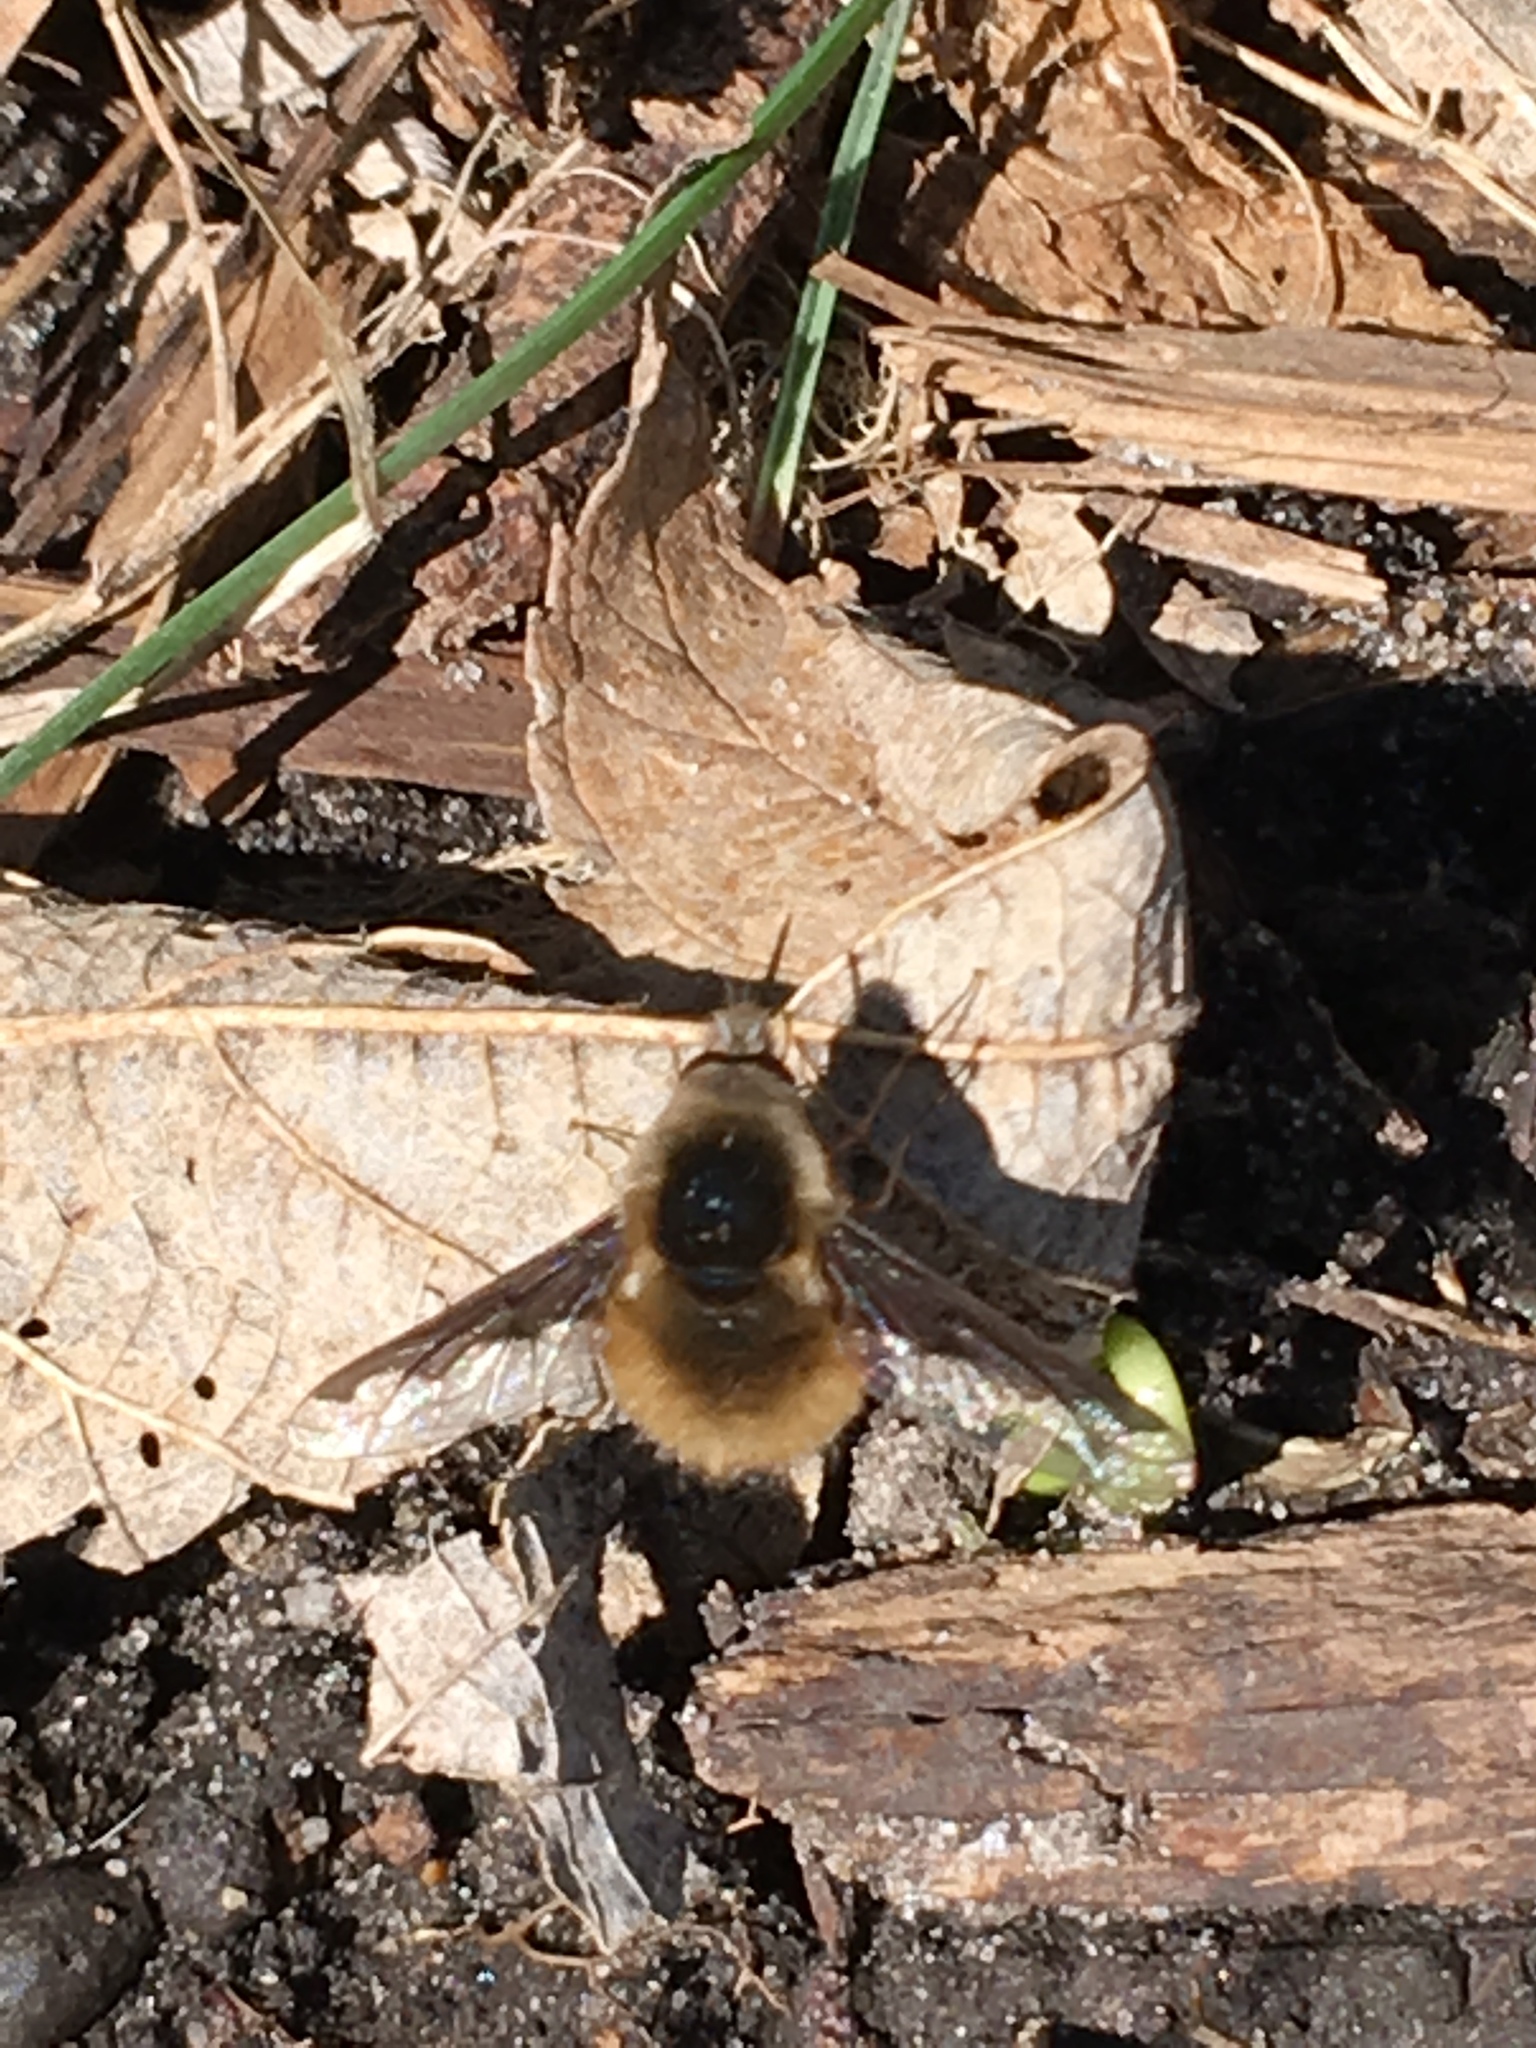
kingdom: Animalia
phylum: Arthropoda
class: Insecta
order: Diptera
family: Bombyliidae
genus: Bombylius
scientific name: Bombylius major
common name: Bee fly
